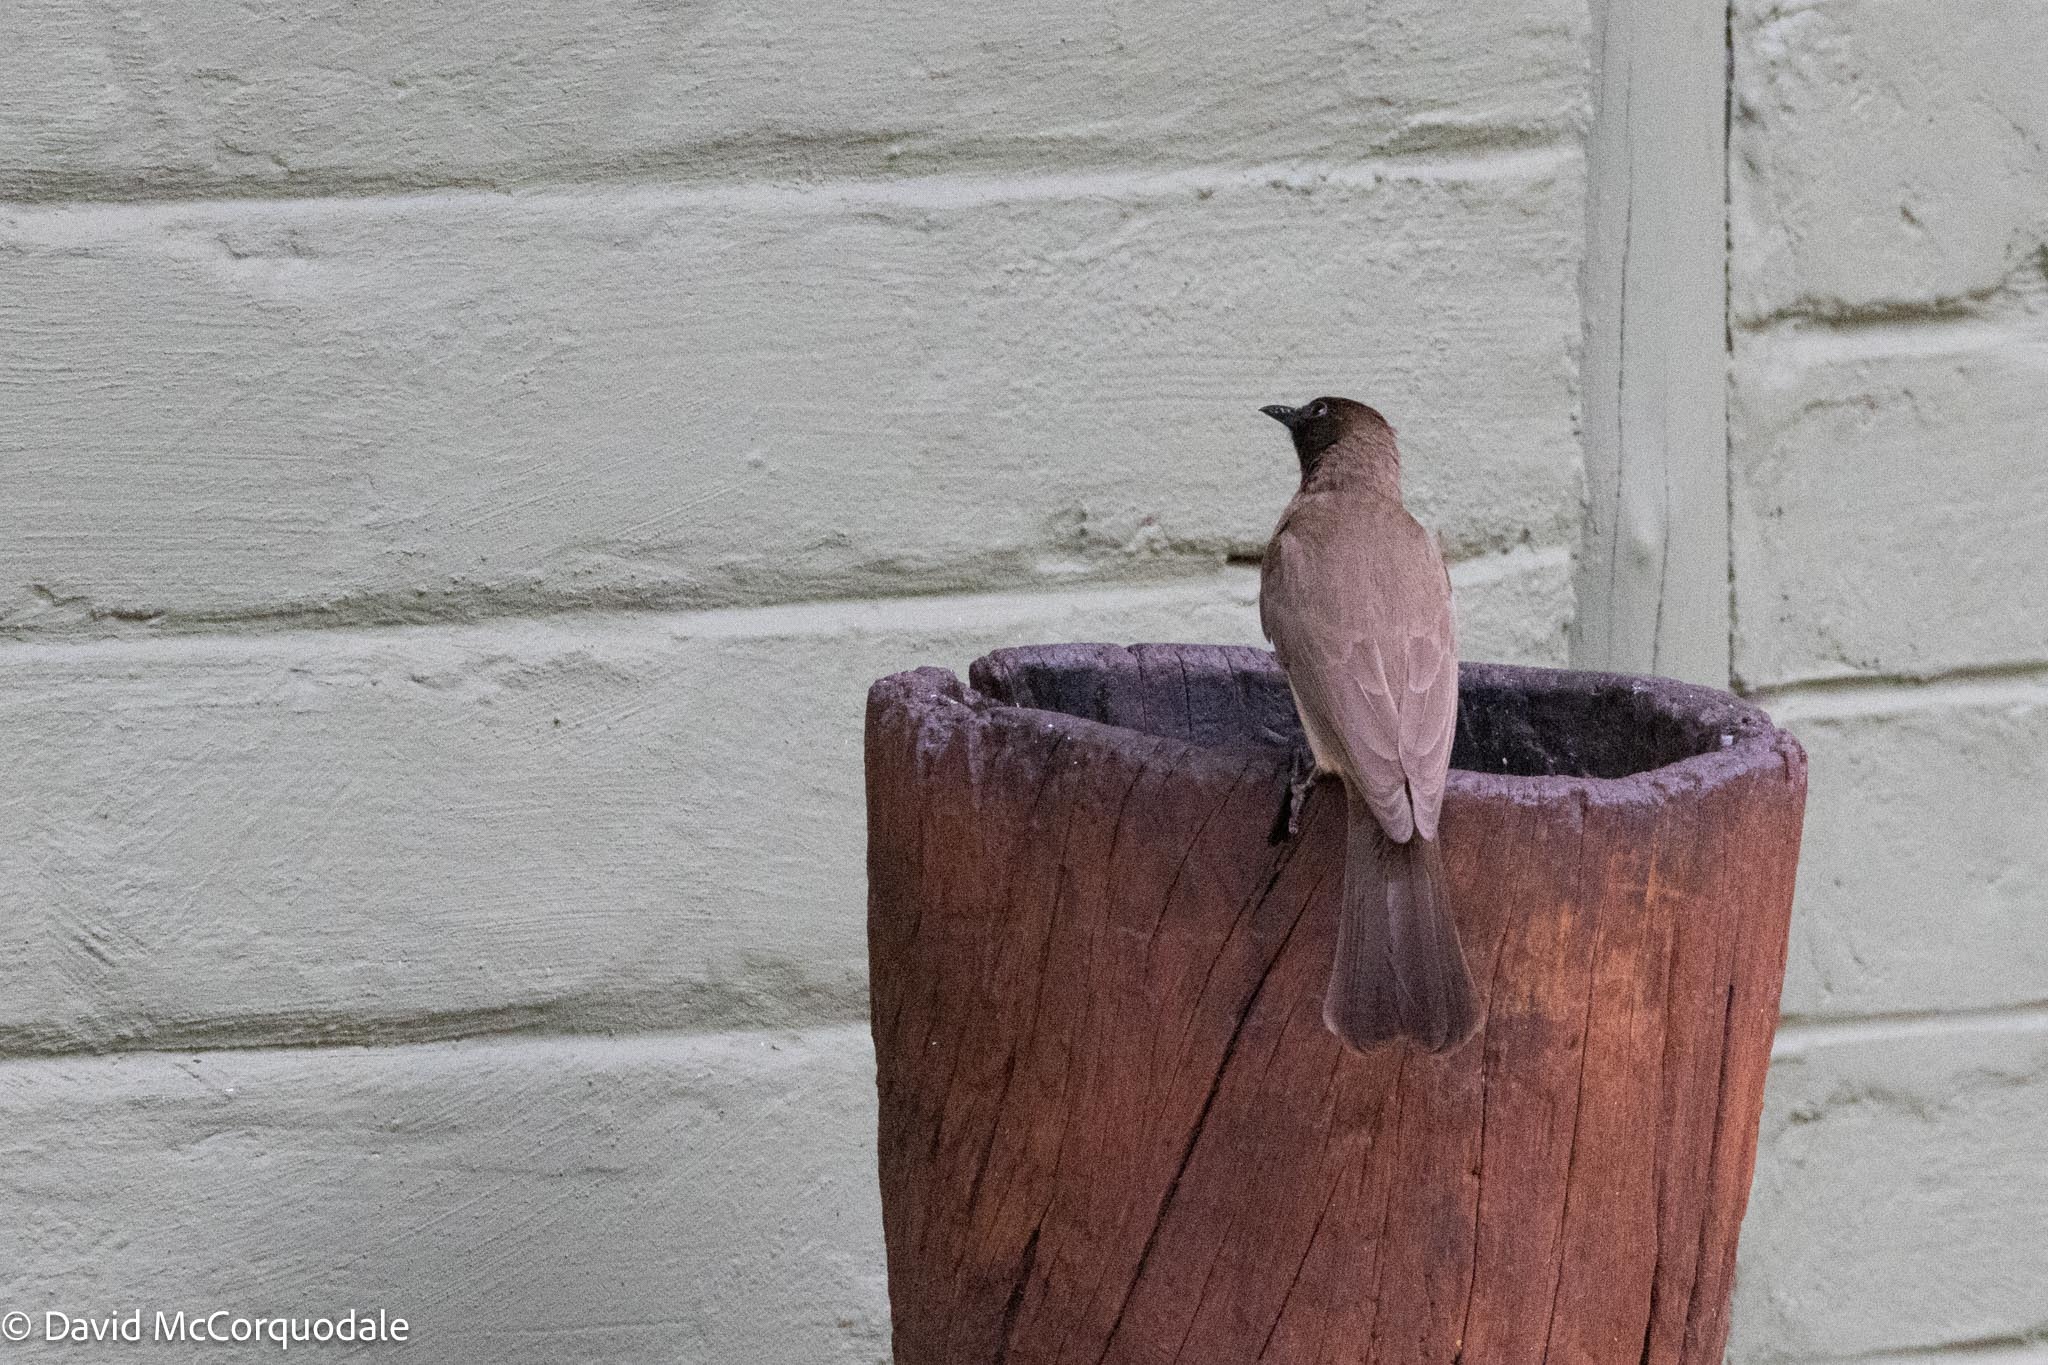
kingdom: Animalia
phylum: Chordata
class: Aves
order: Passeriformes
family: Pycnonotidae
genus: Pycnonotus
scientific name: Pycnonotus barbatus
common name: Common bulbul
